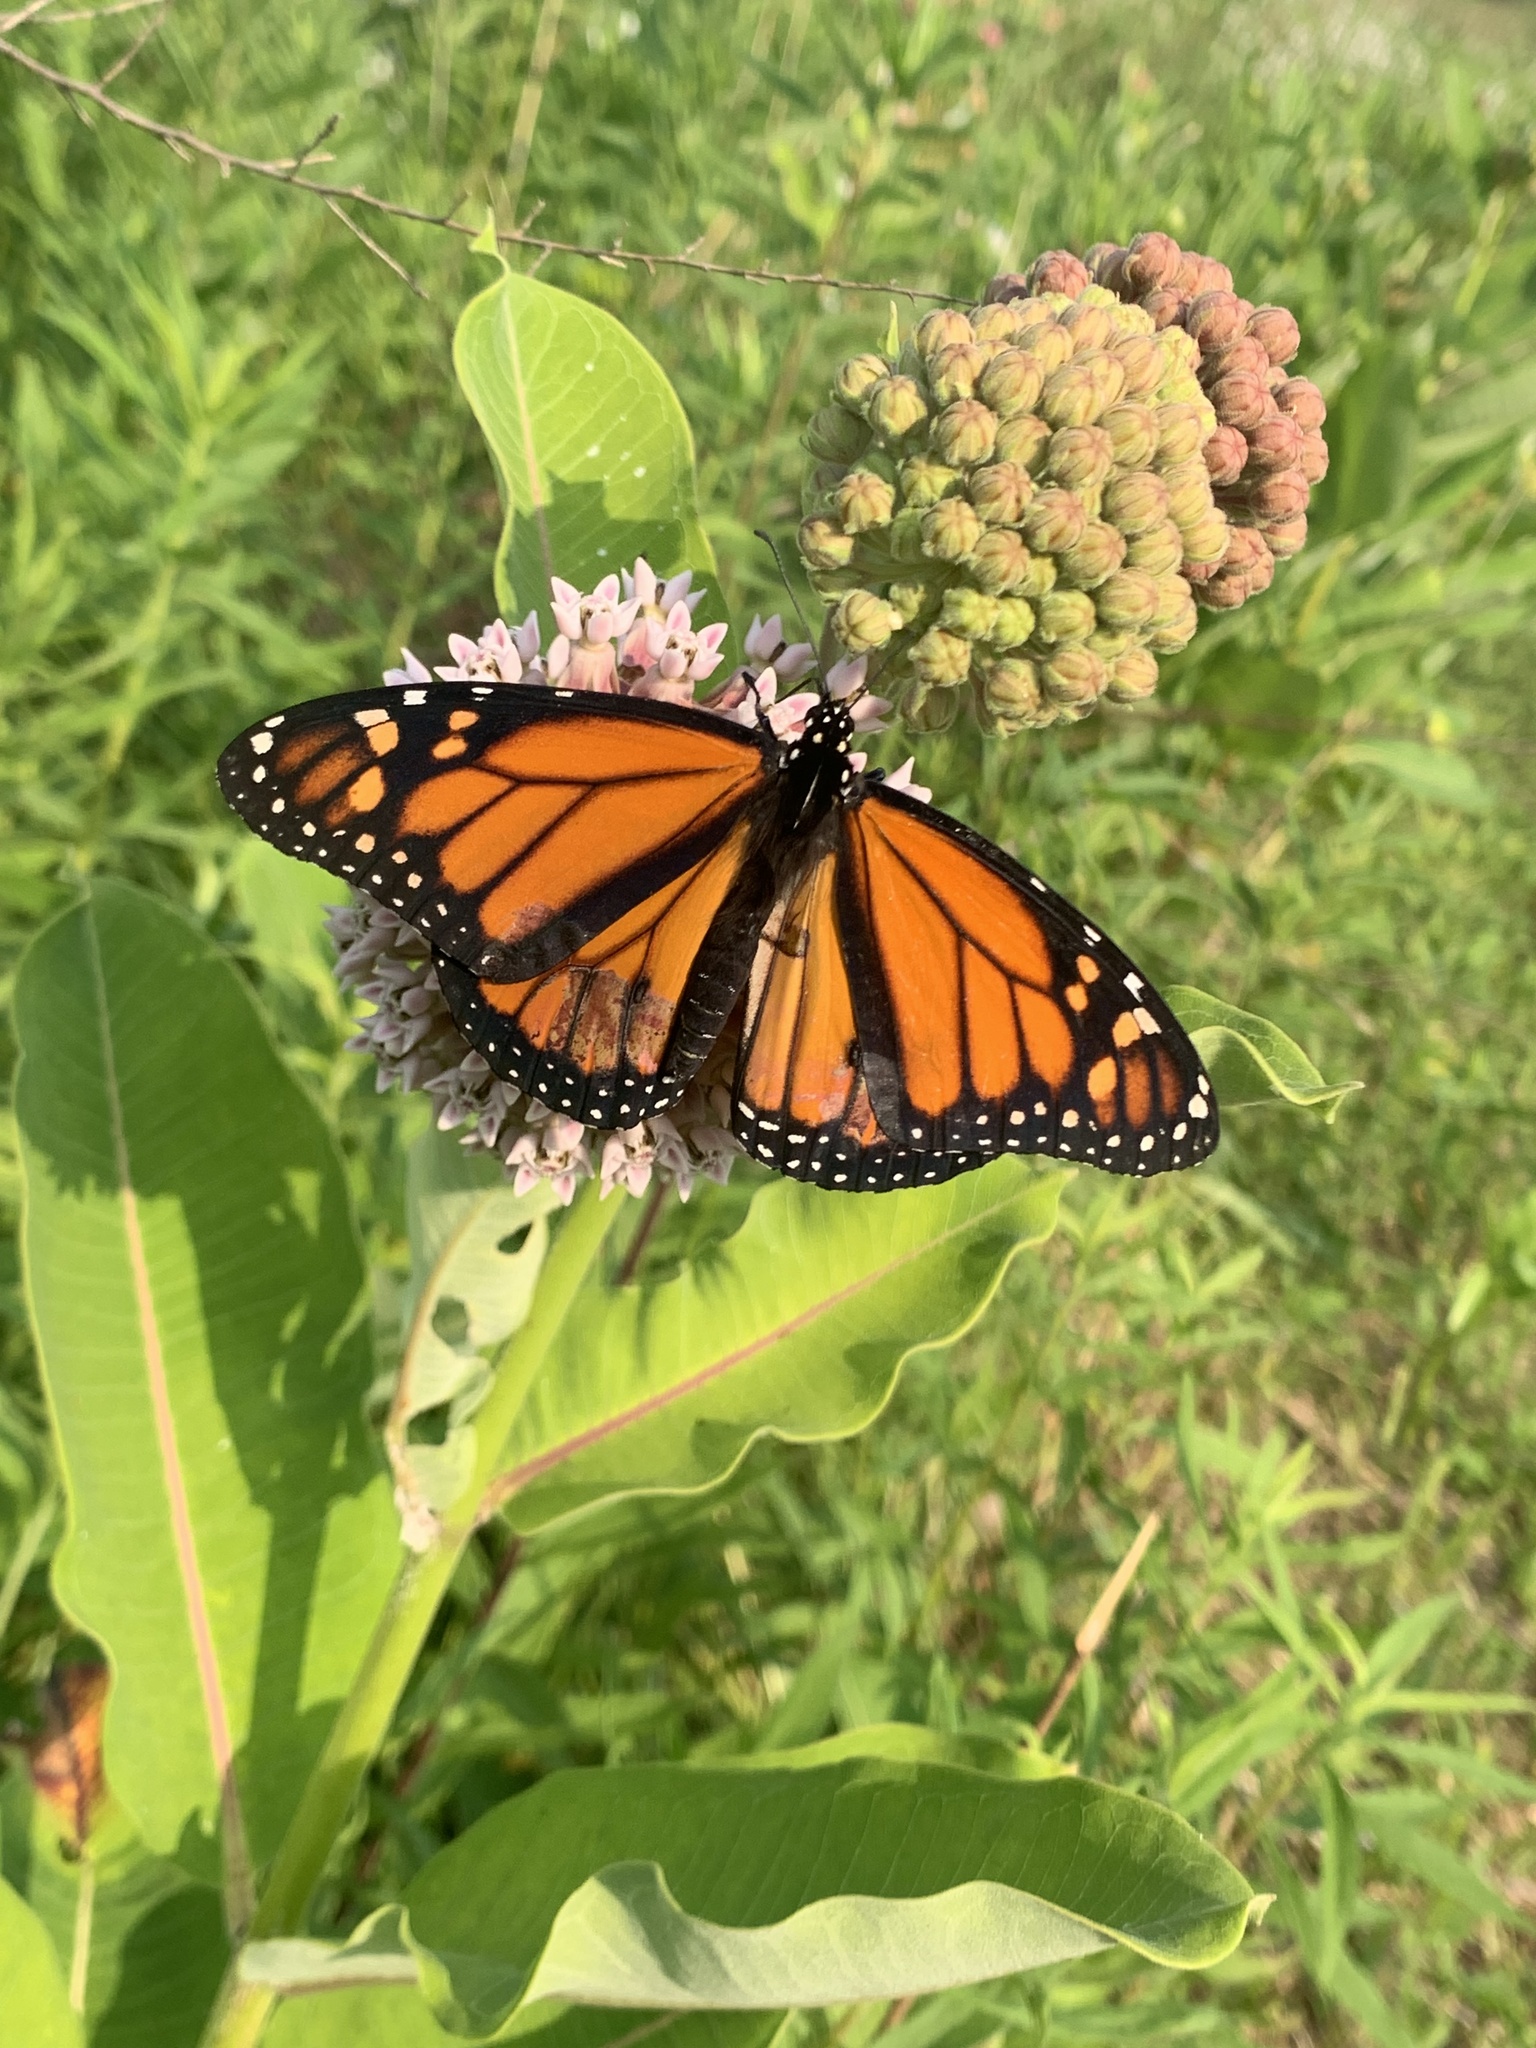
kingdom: Animalia
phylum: Arthropoda
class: Insecta
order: Lepidoptera
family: Nymphalidae
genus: Danaus
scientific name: Danaus plexippus
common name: Monarch
